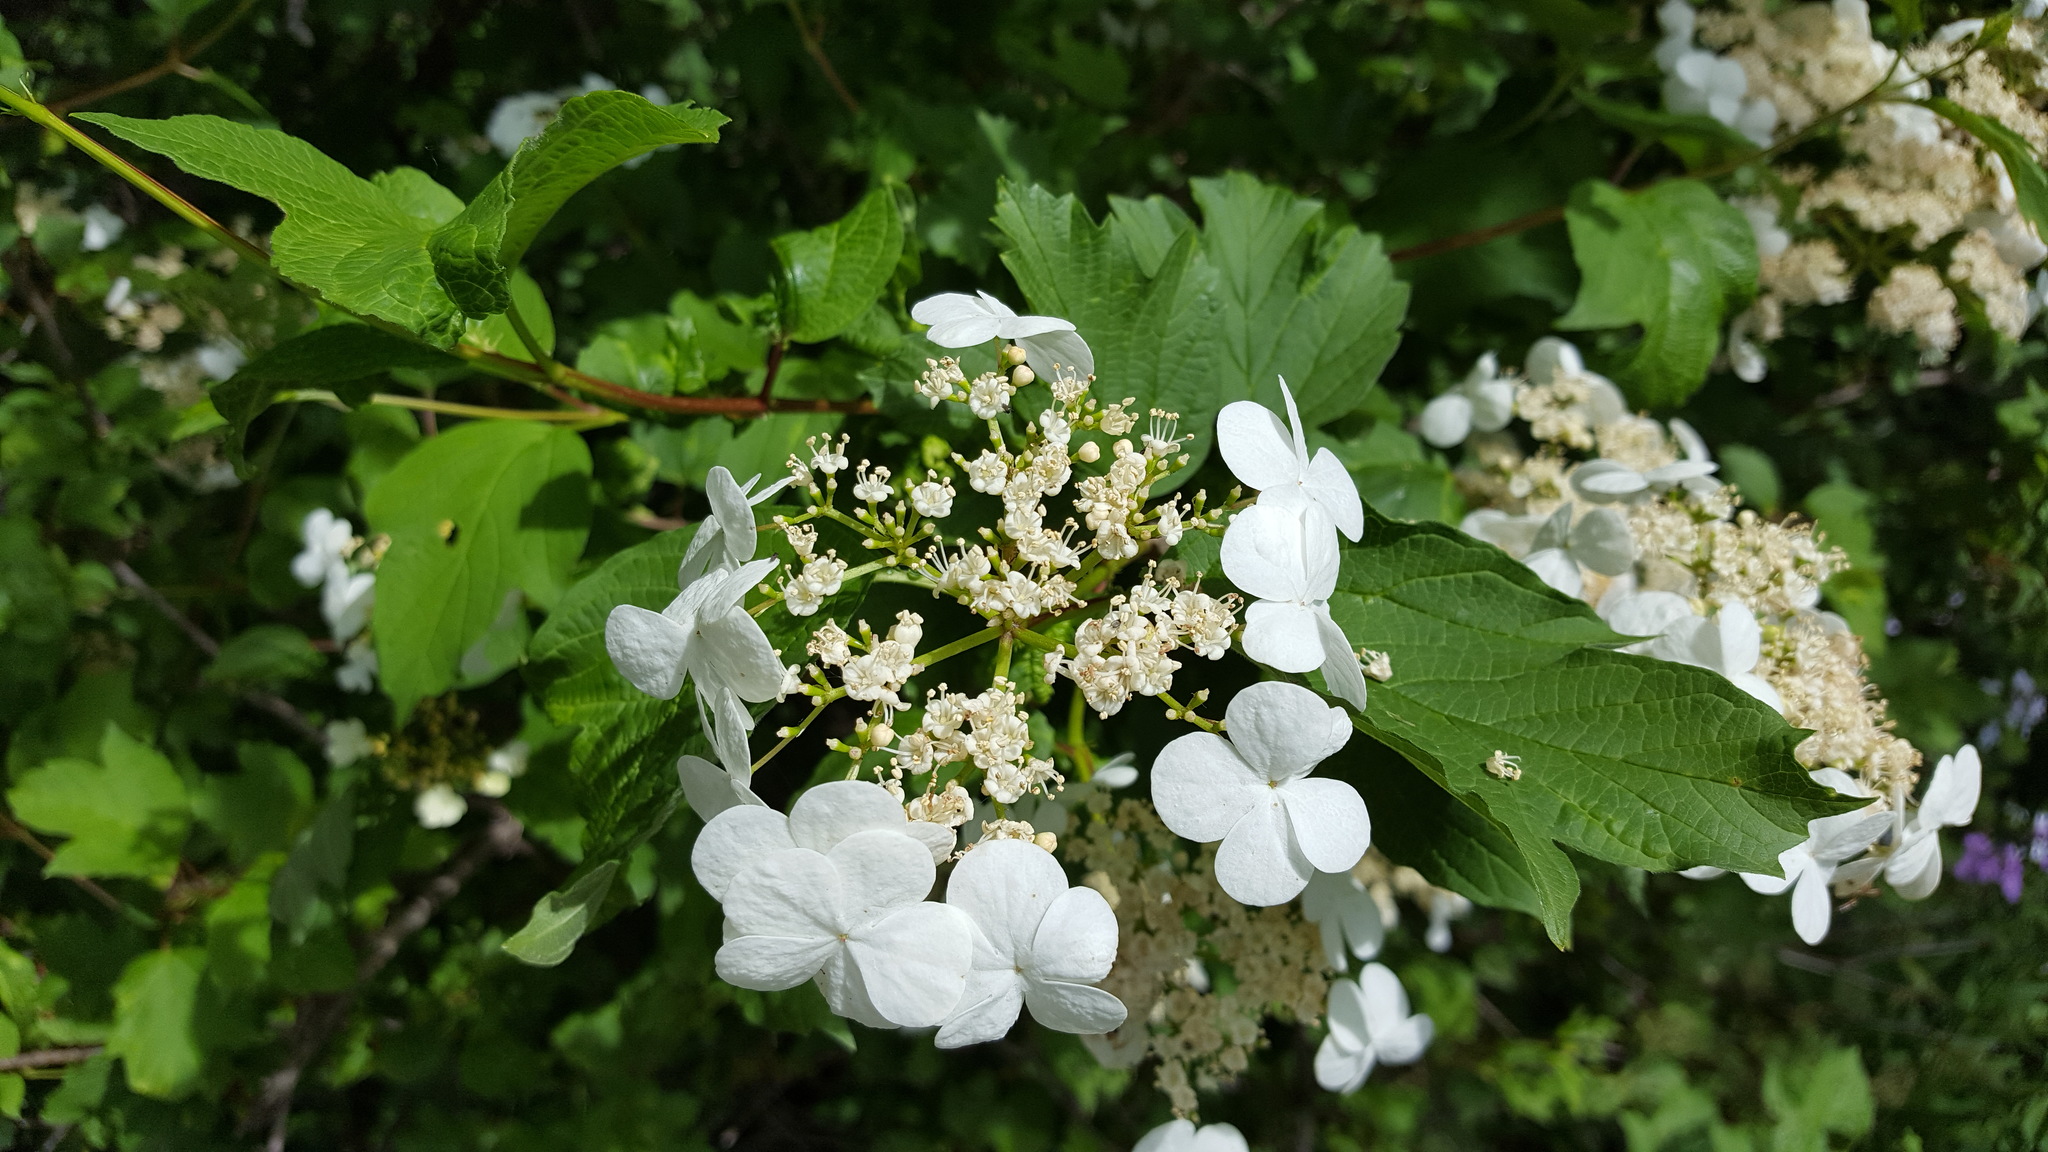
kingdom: Plantae
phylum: Tracheophyta
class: Magnoliopsida
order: Dipsacales
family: Viburnaceae
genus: Viburnum
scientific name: Viburnum trilobum
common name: American cranberrybush
